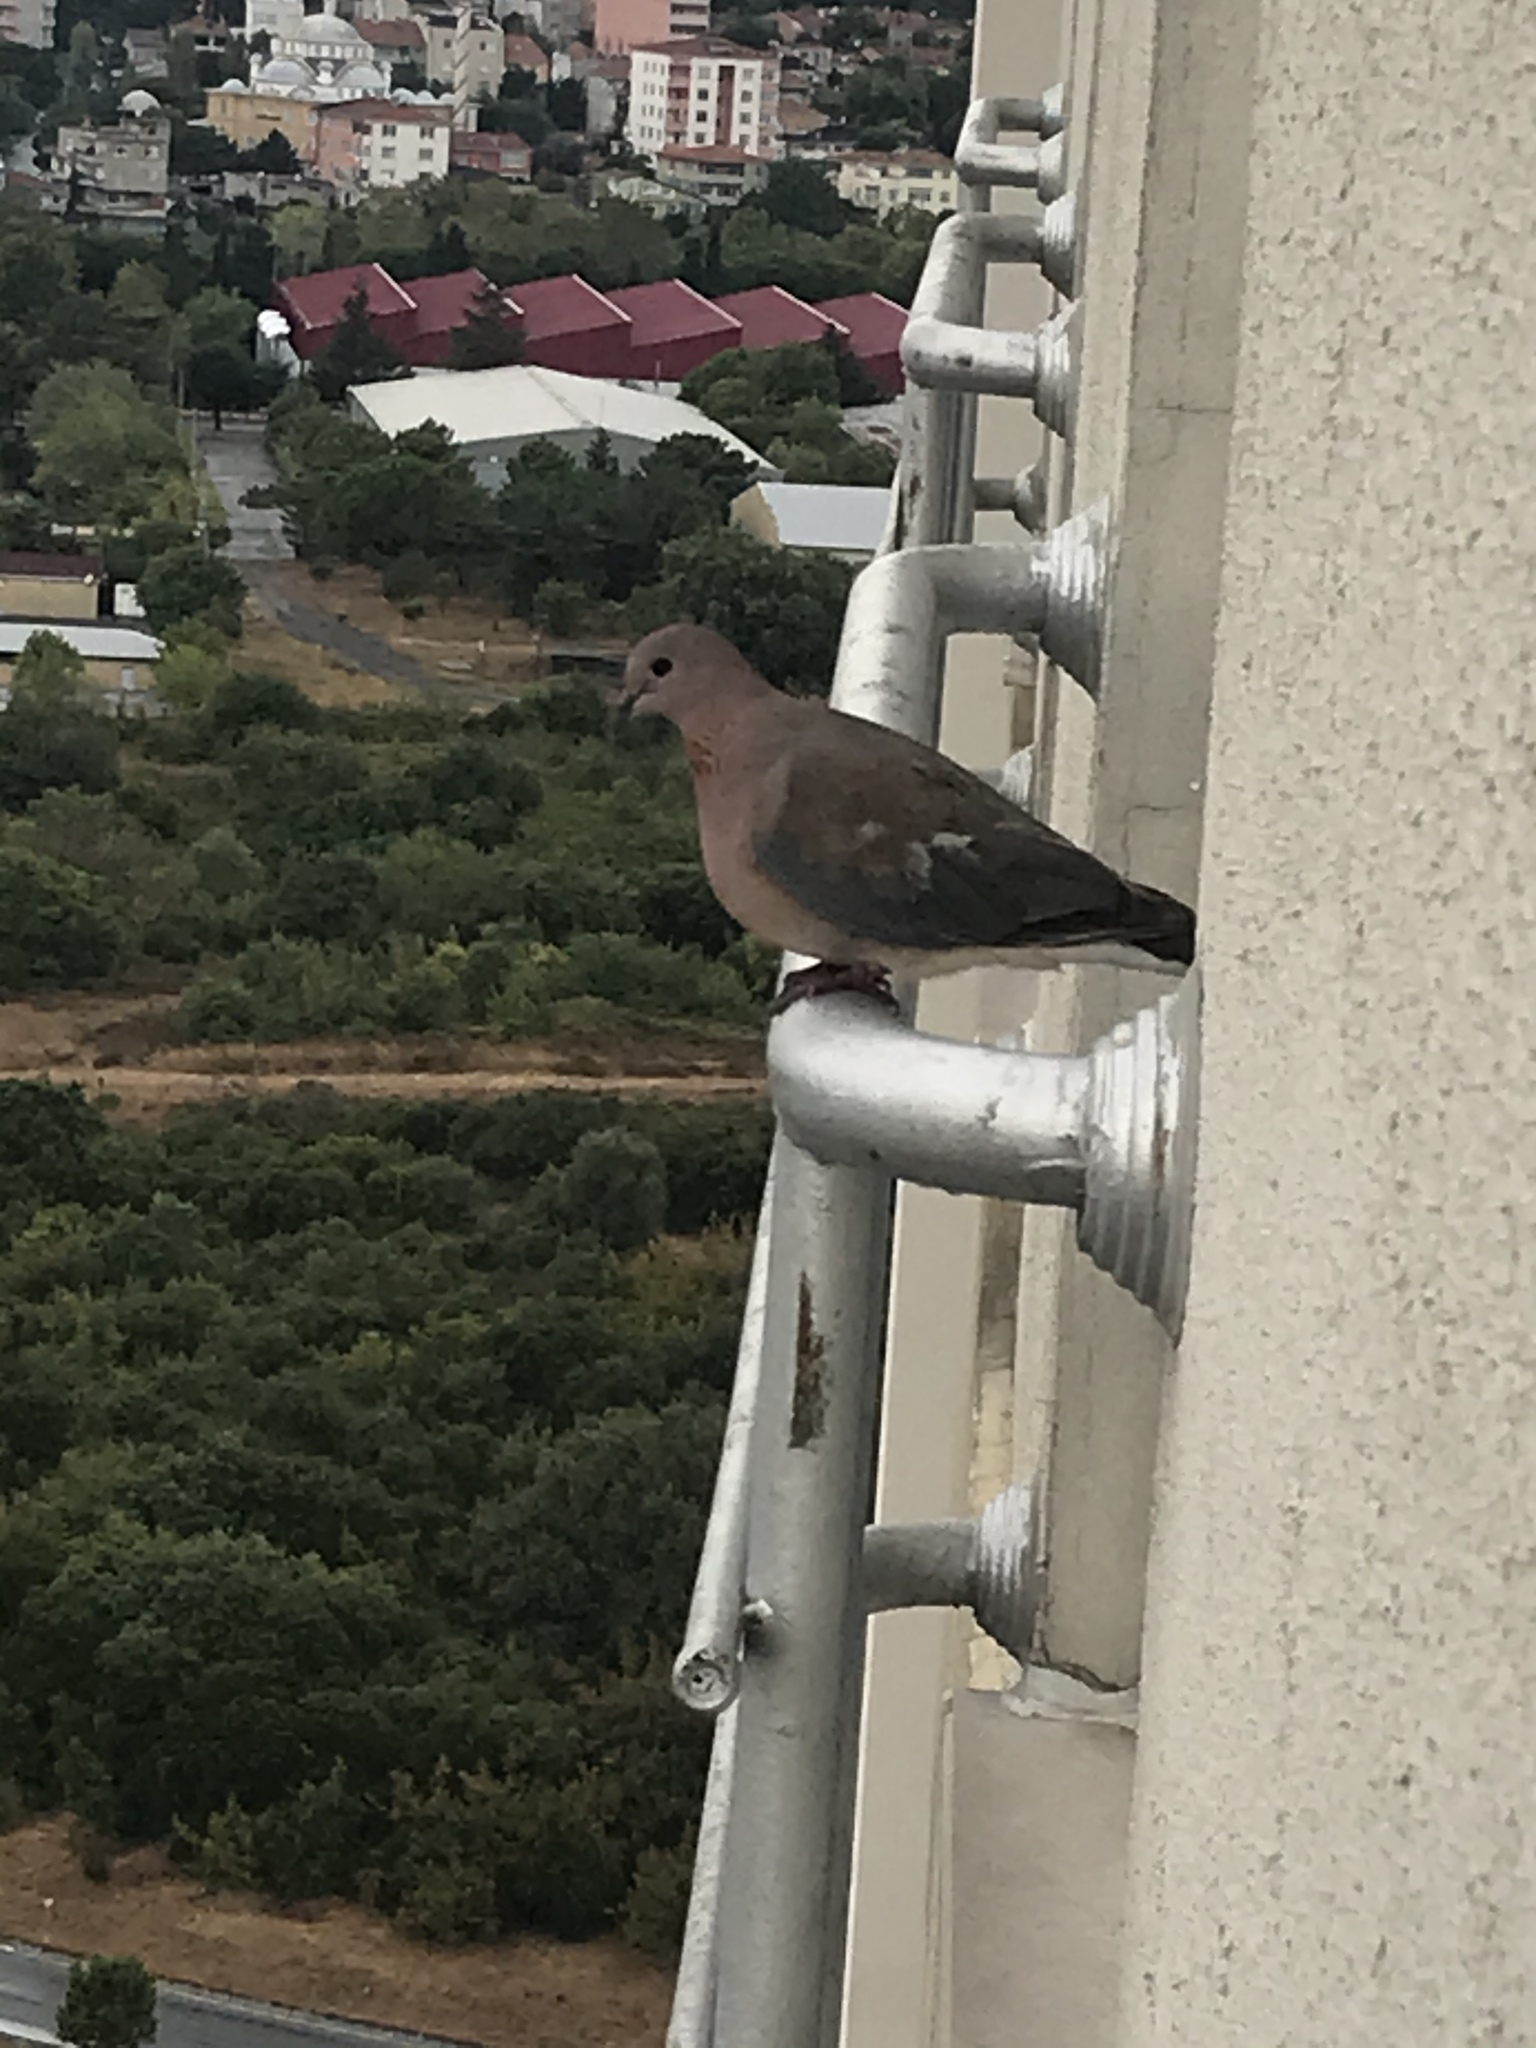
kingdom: Animalia
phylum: Chordata
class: Aves
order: Columbiformes
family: Columbidae
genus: Spilopelia
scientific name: Spilopelia senegalensis
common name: Laughing dove
